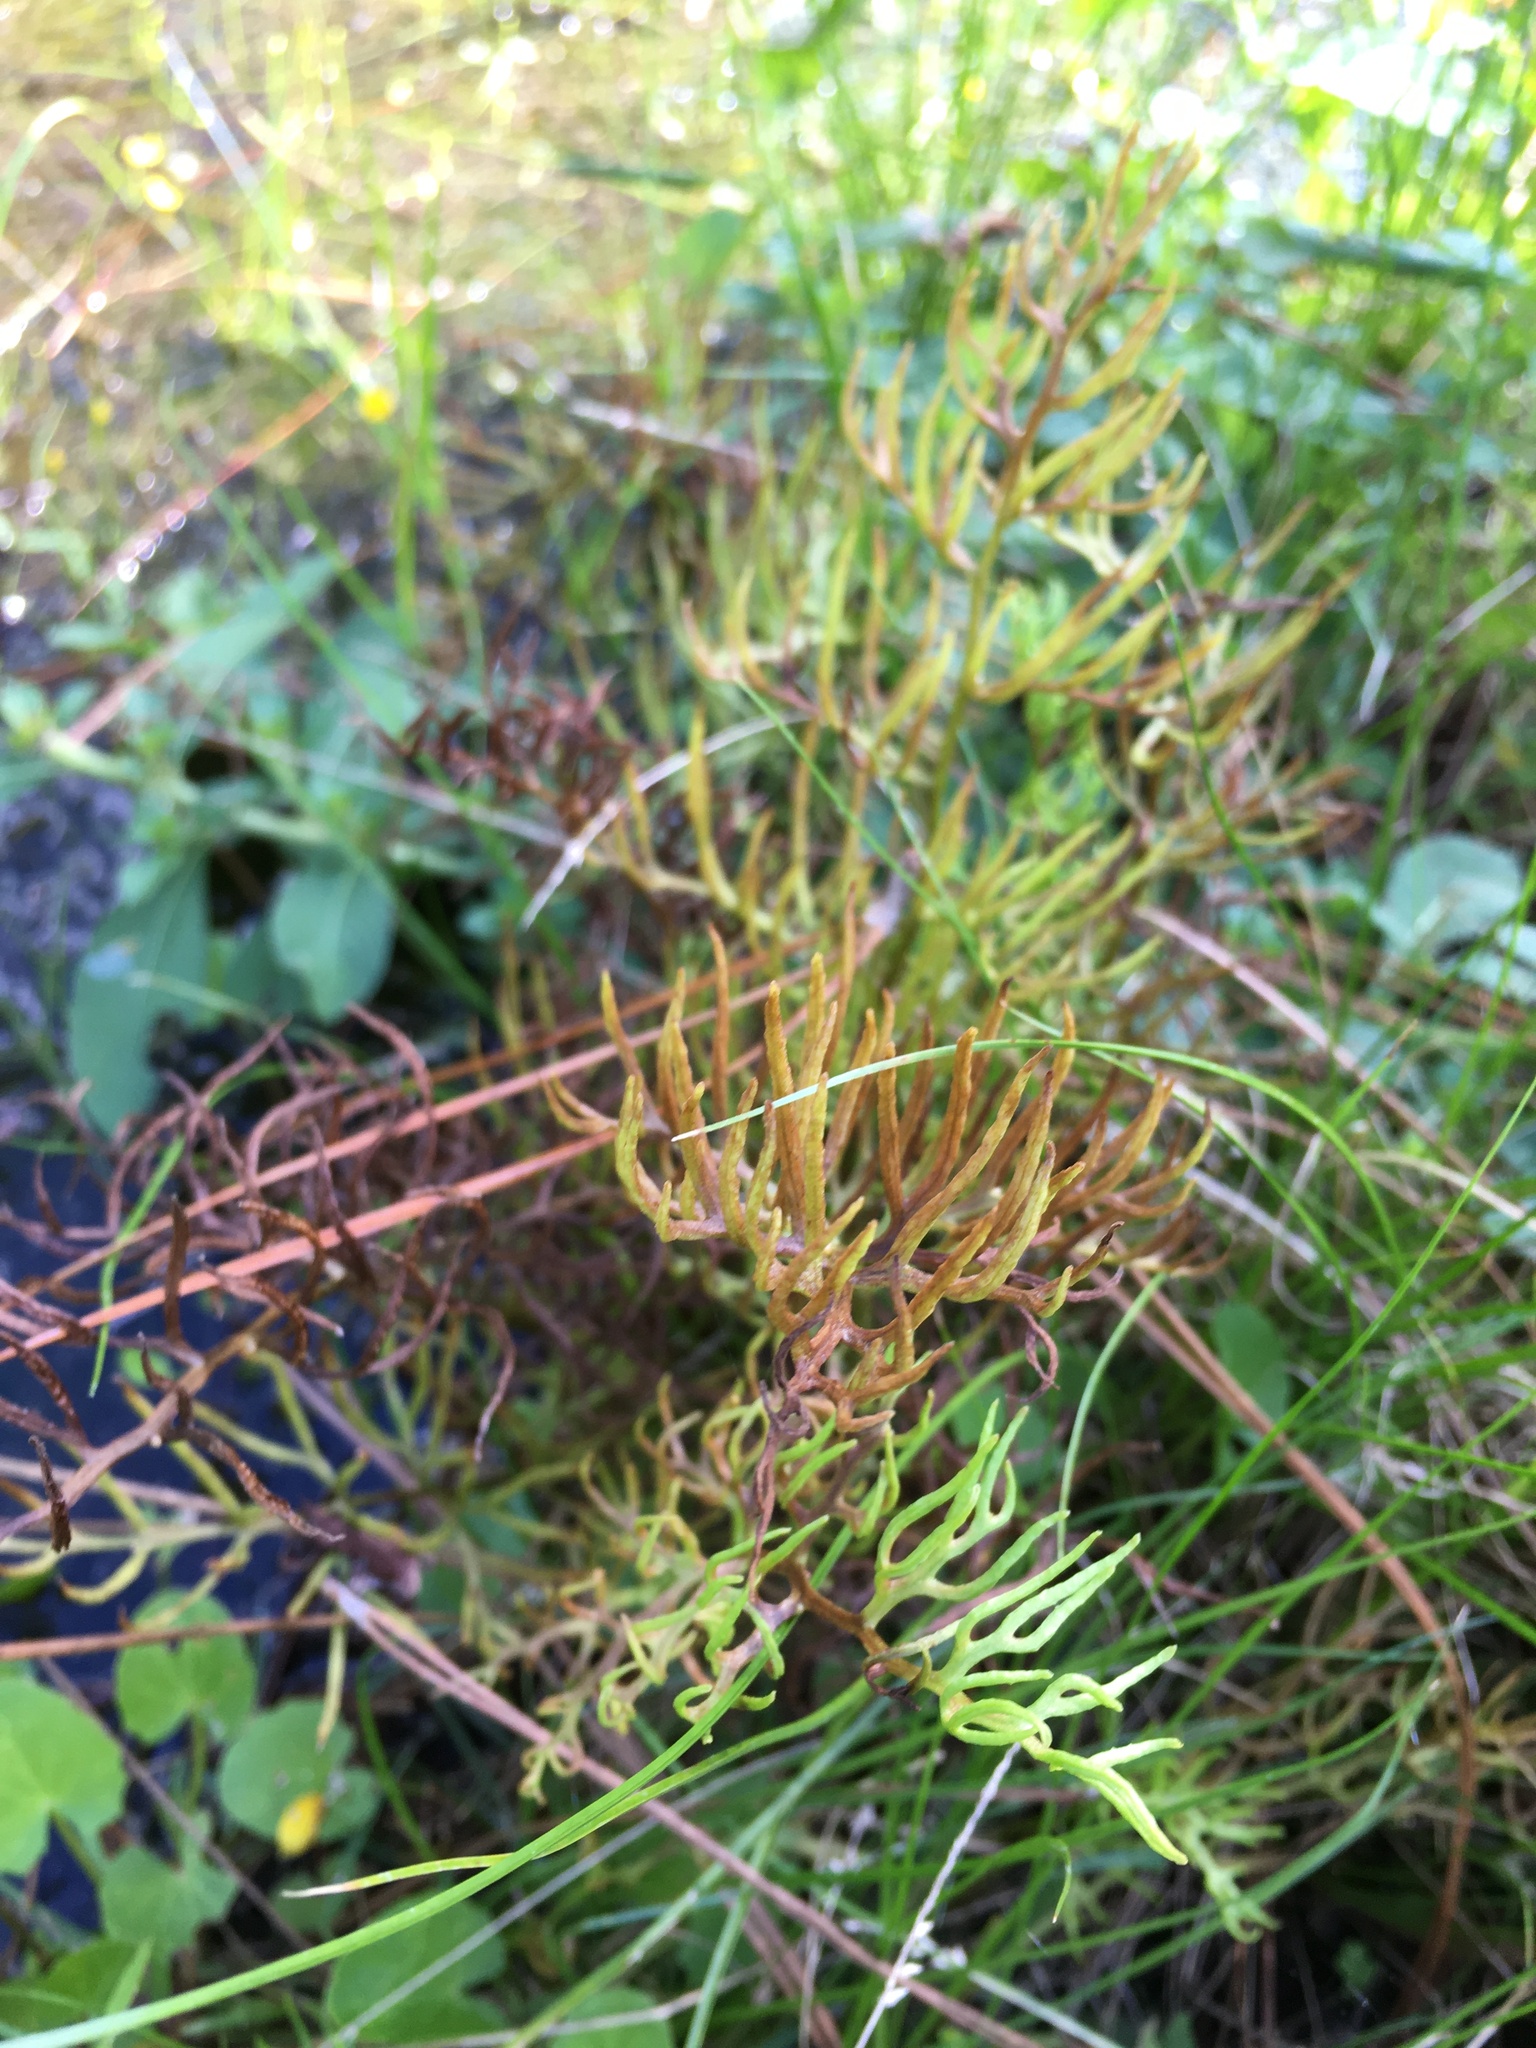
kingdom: Plantae
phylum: Tracheophyta
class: Polypodiopsida
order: Polypodiales
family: Pteridaceae
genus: Ceratopteris
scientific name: Ceratopteris thalictroides
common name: Water fern
